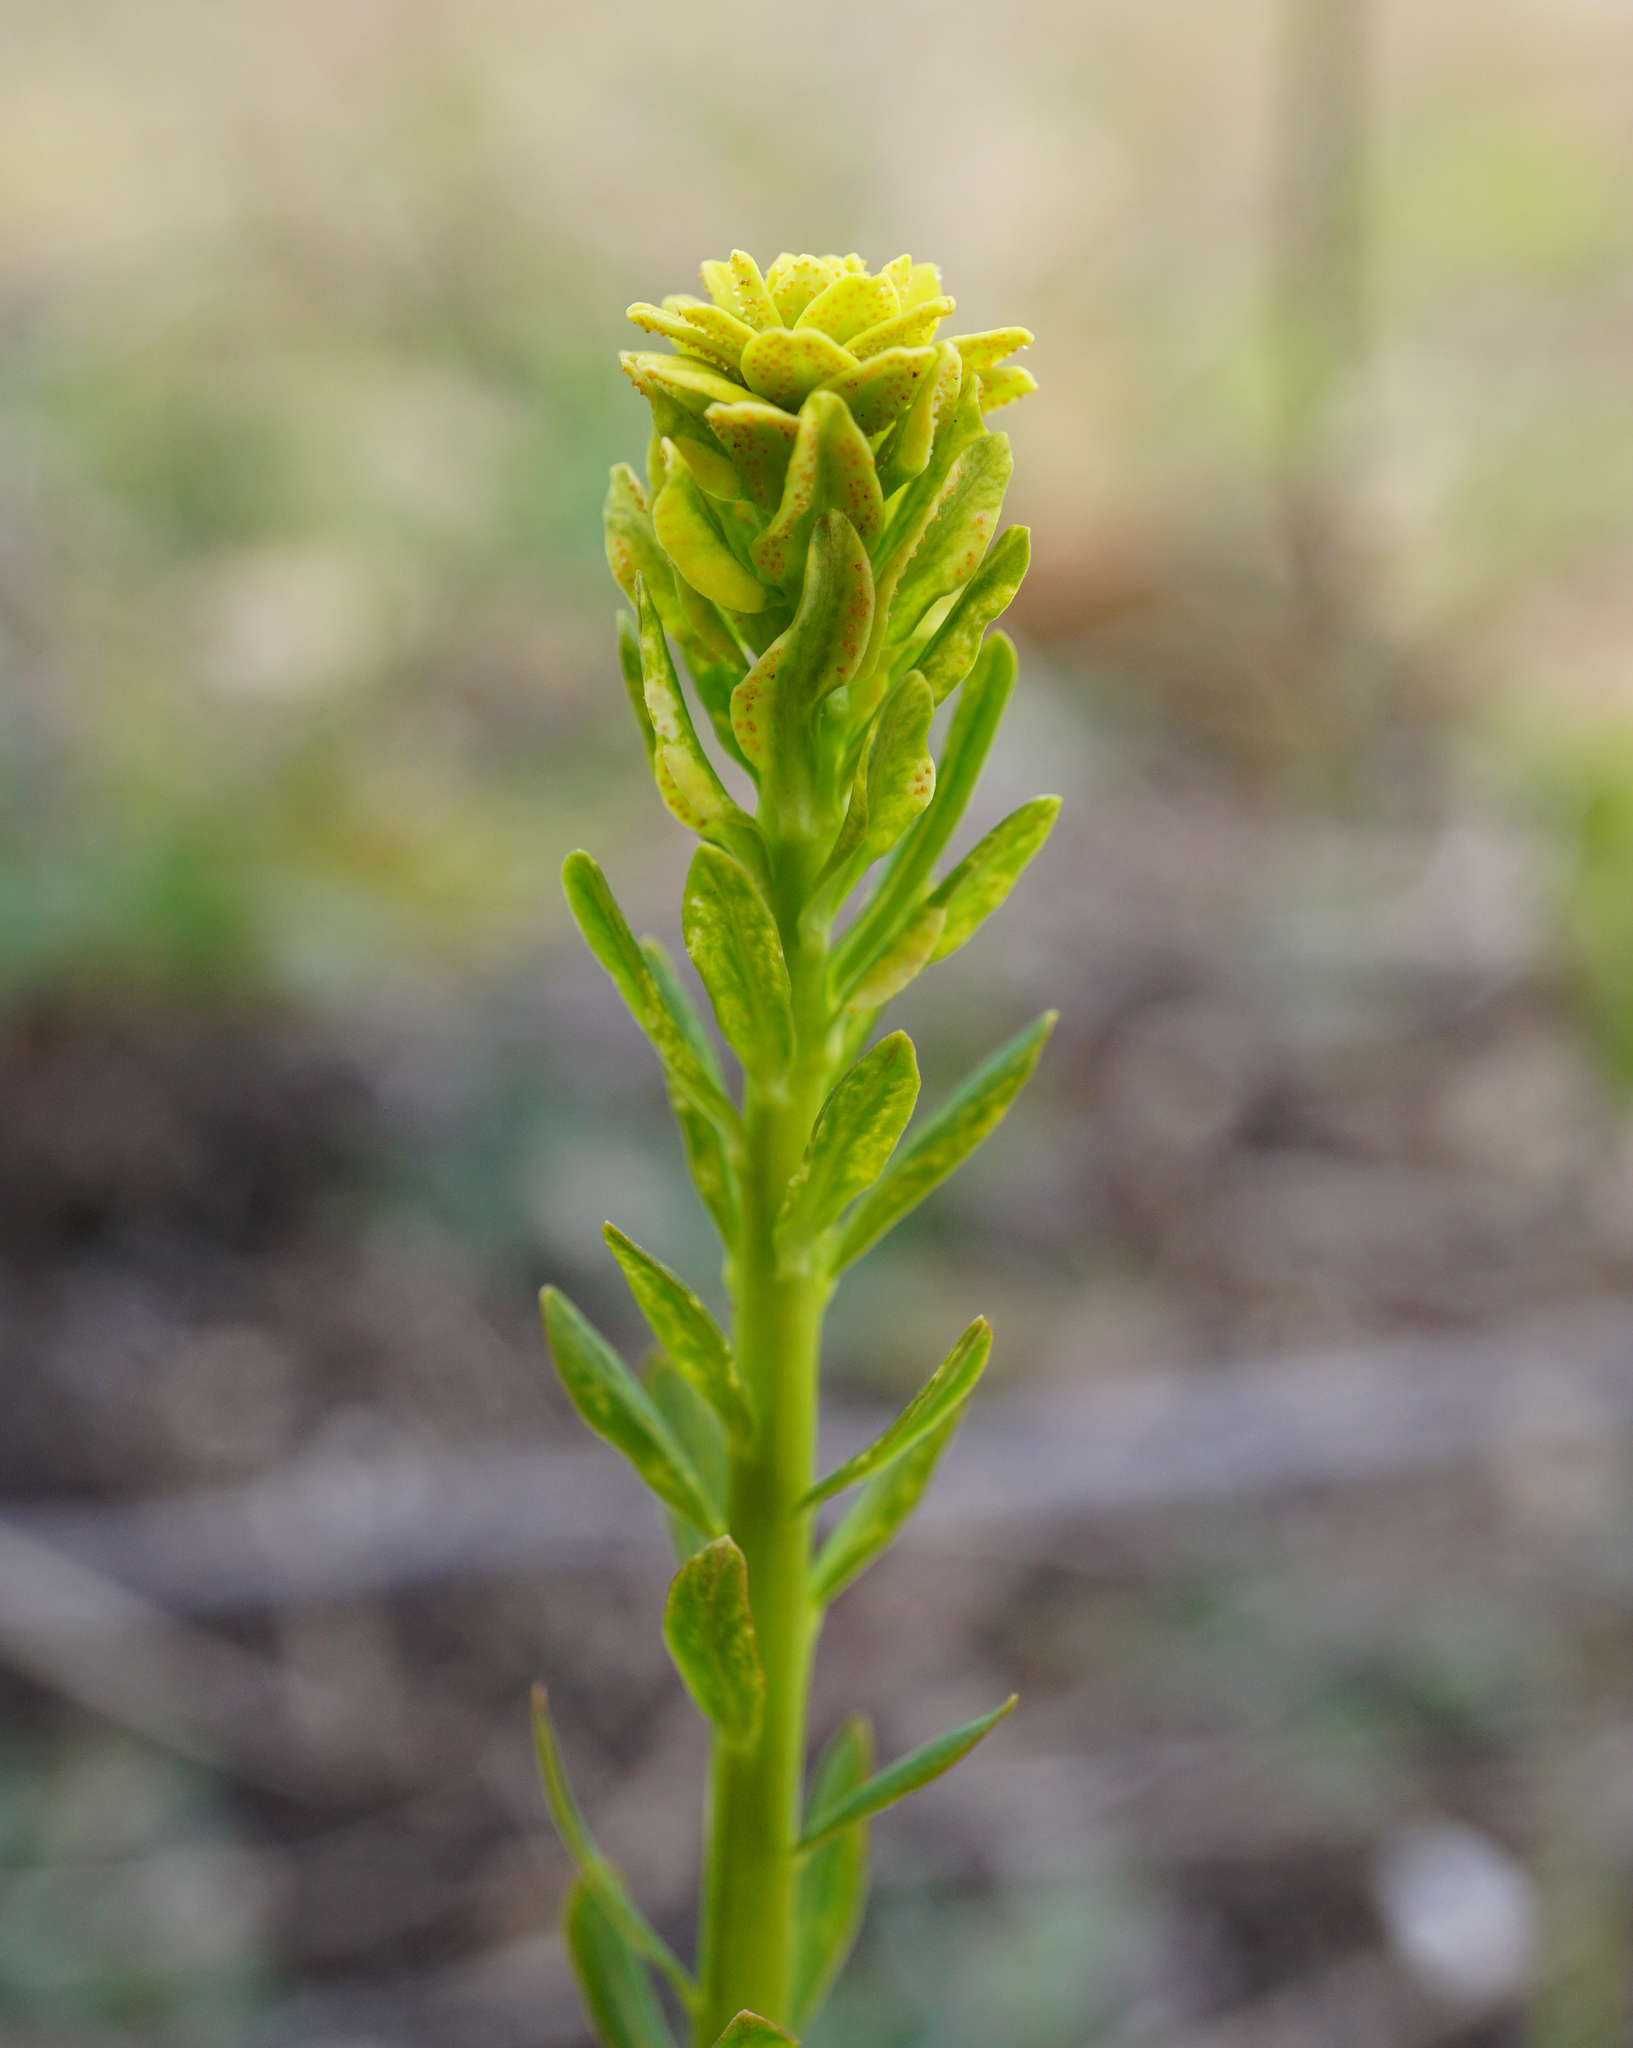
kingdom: Plantae
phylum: Tracheophyta
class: Magnoliopsida
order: Malpighiales
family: Euphorbiaceae
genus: Euphorbia
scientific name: Euphorbia cyparissias
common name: Cypress spurge
